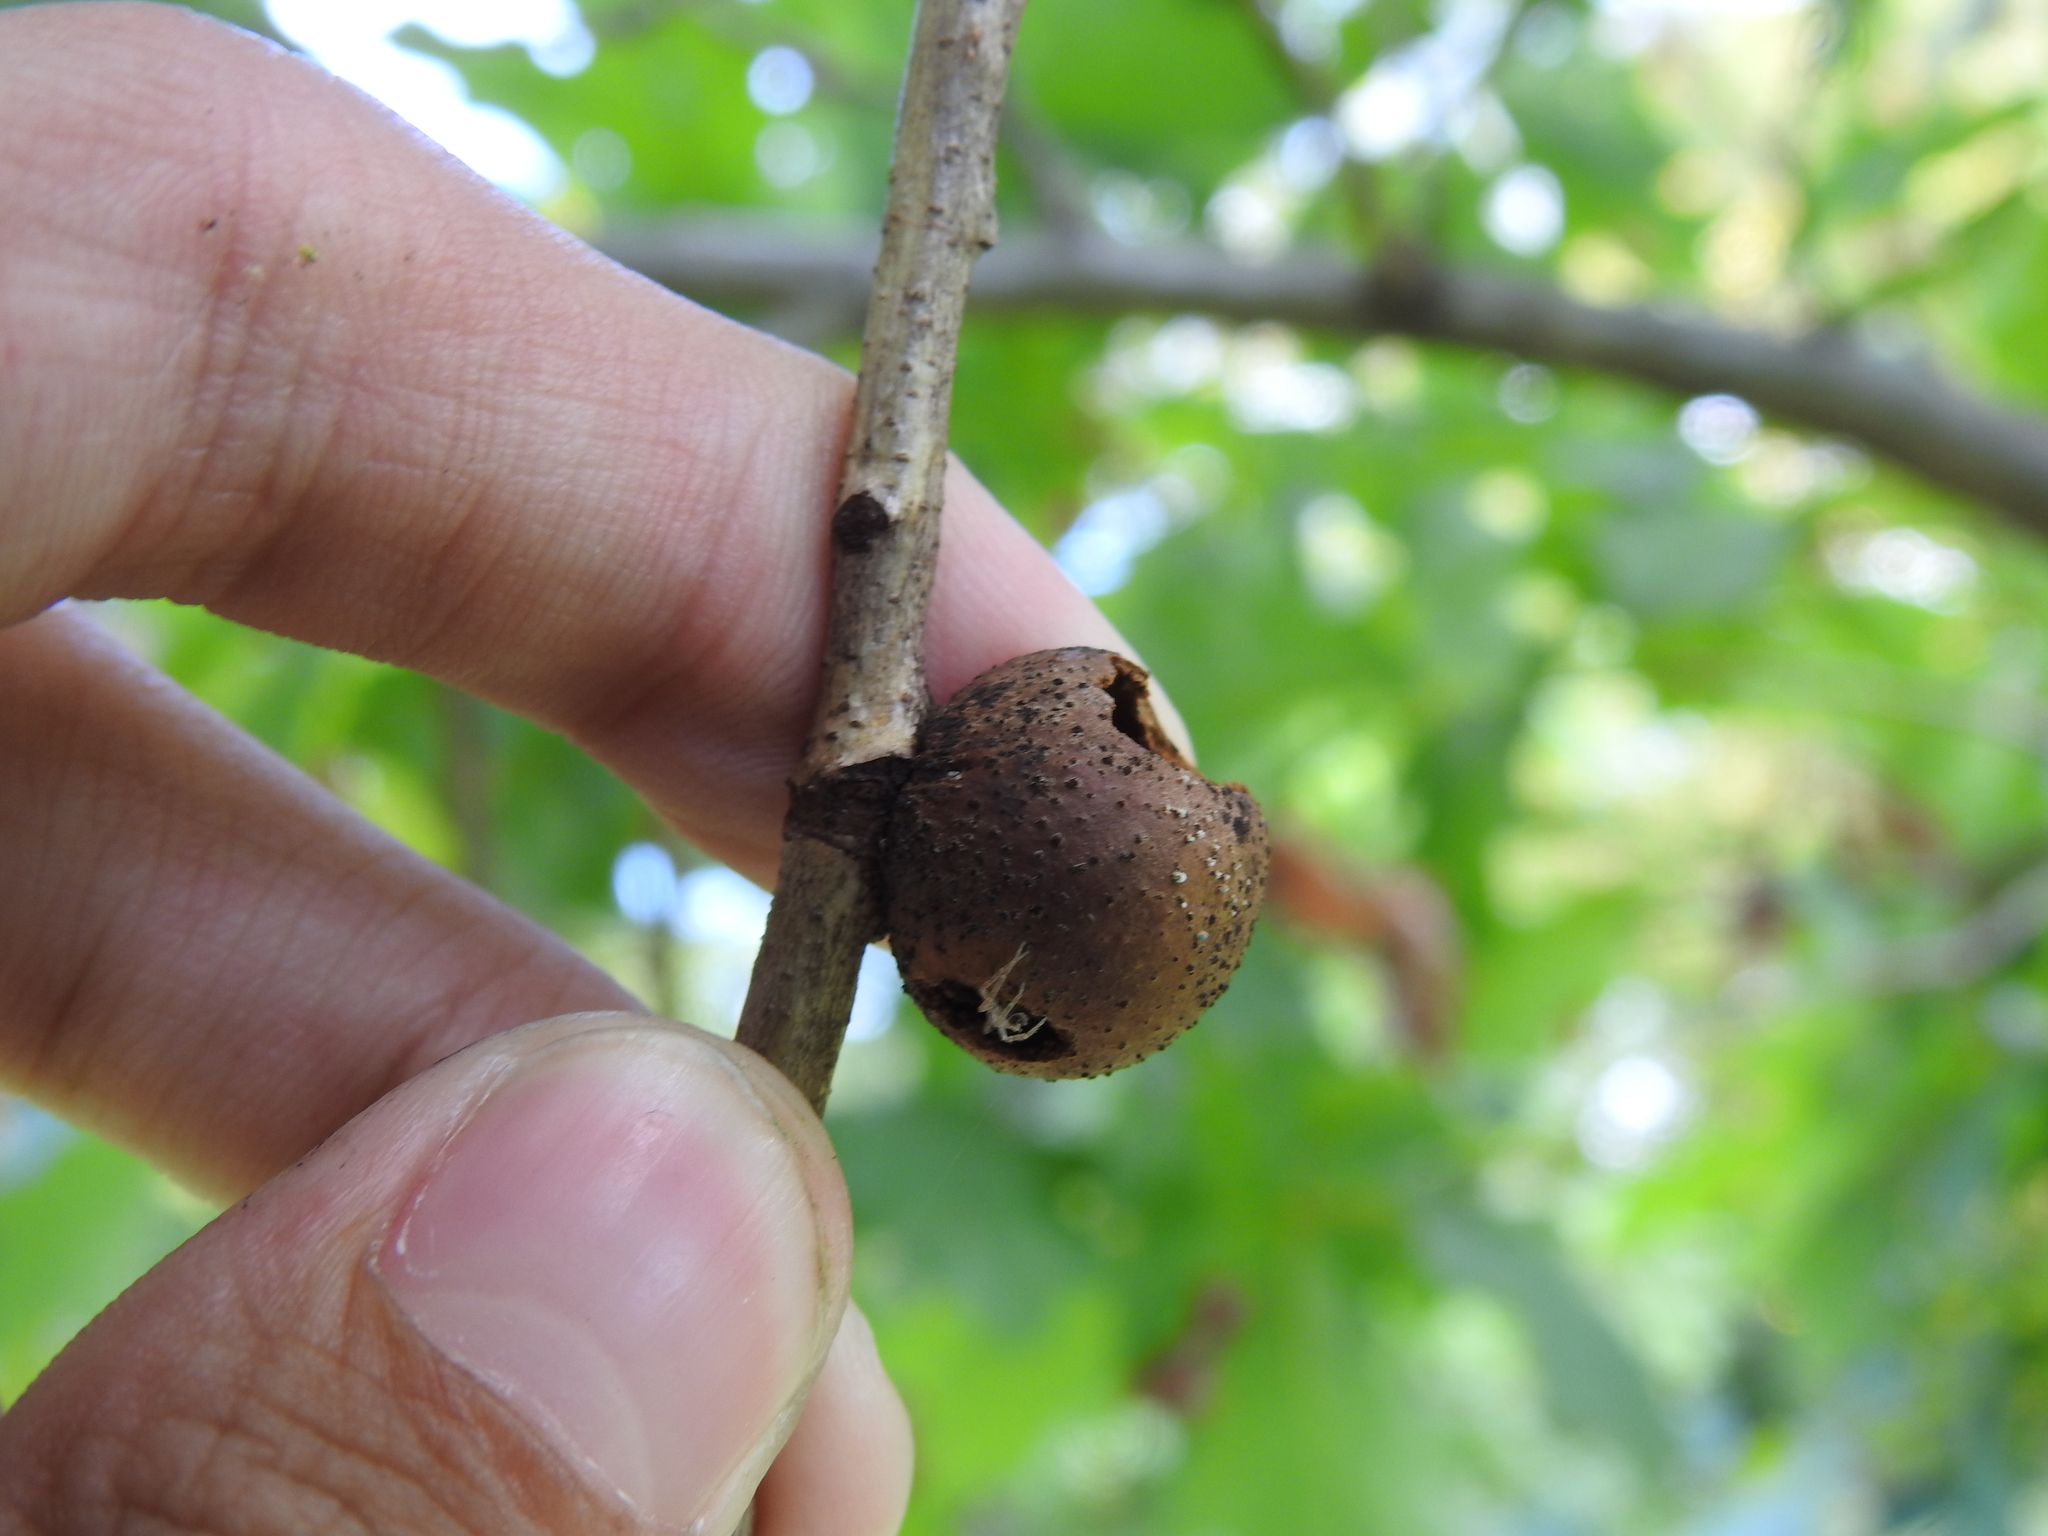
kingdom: Animalia
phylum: Arthropoda
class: Insecta
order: Hymenoptera
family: Cynipidae
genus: Disholcaspis
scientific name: Disholcaspis quercusglobulus
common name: Round bullet gall wasp
